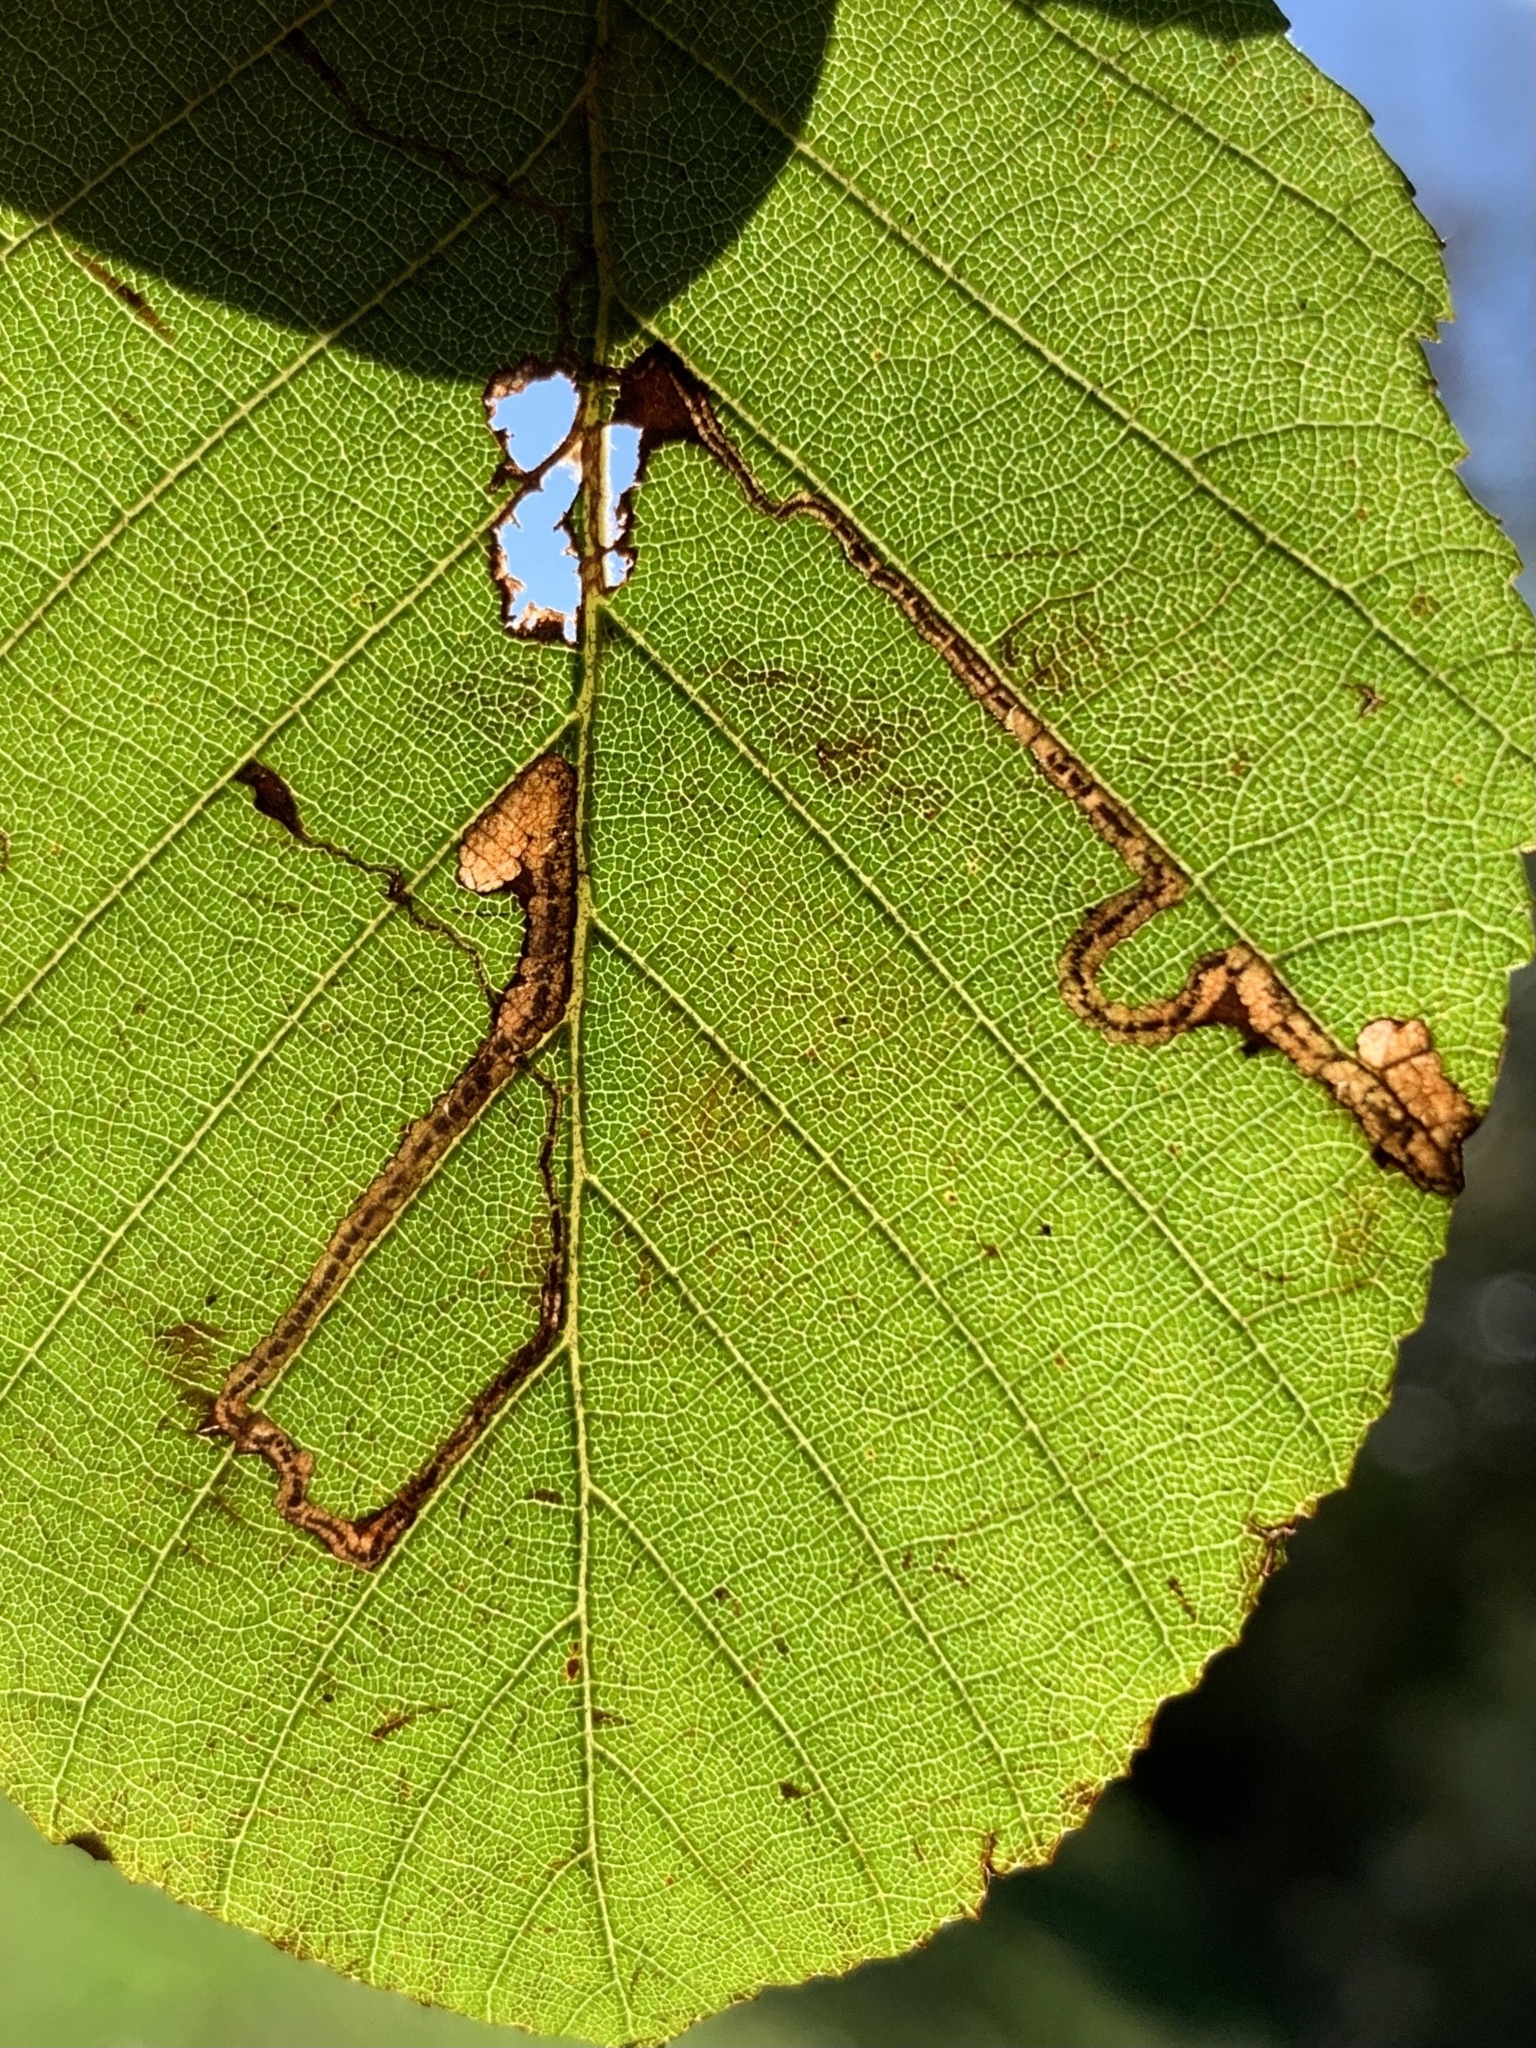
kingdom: Animalia
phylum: Arthropoda
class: Insecta
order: Lepidoptera
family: Nepticulidae
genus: Stigmella
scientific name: Stigmella corylifoliella
